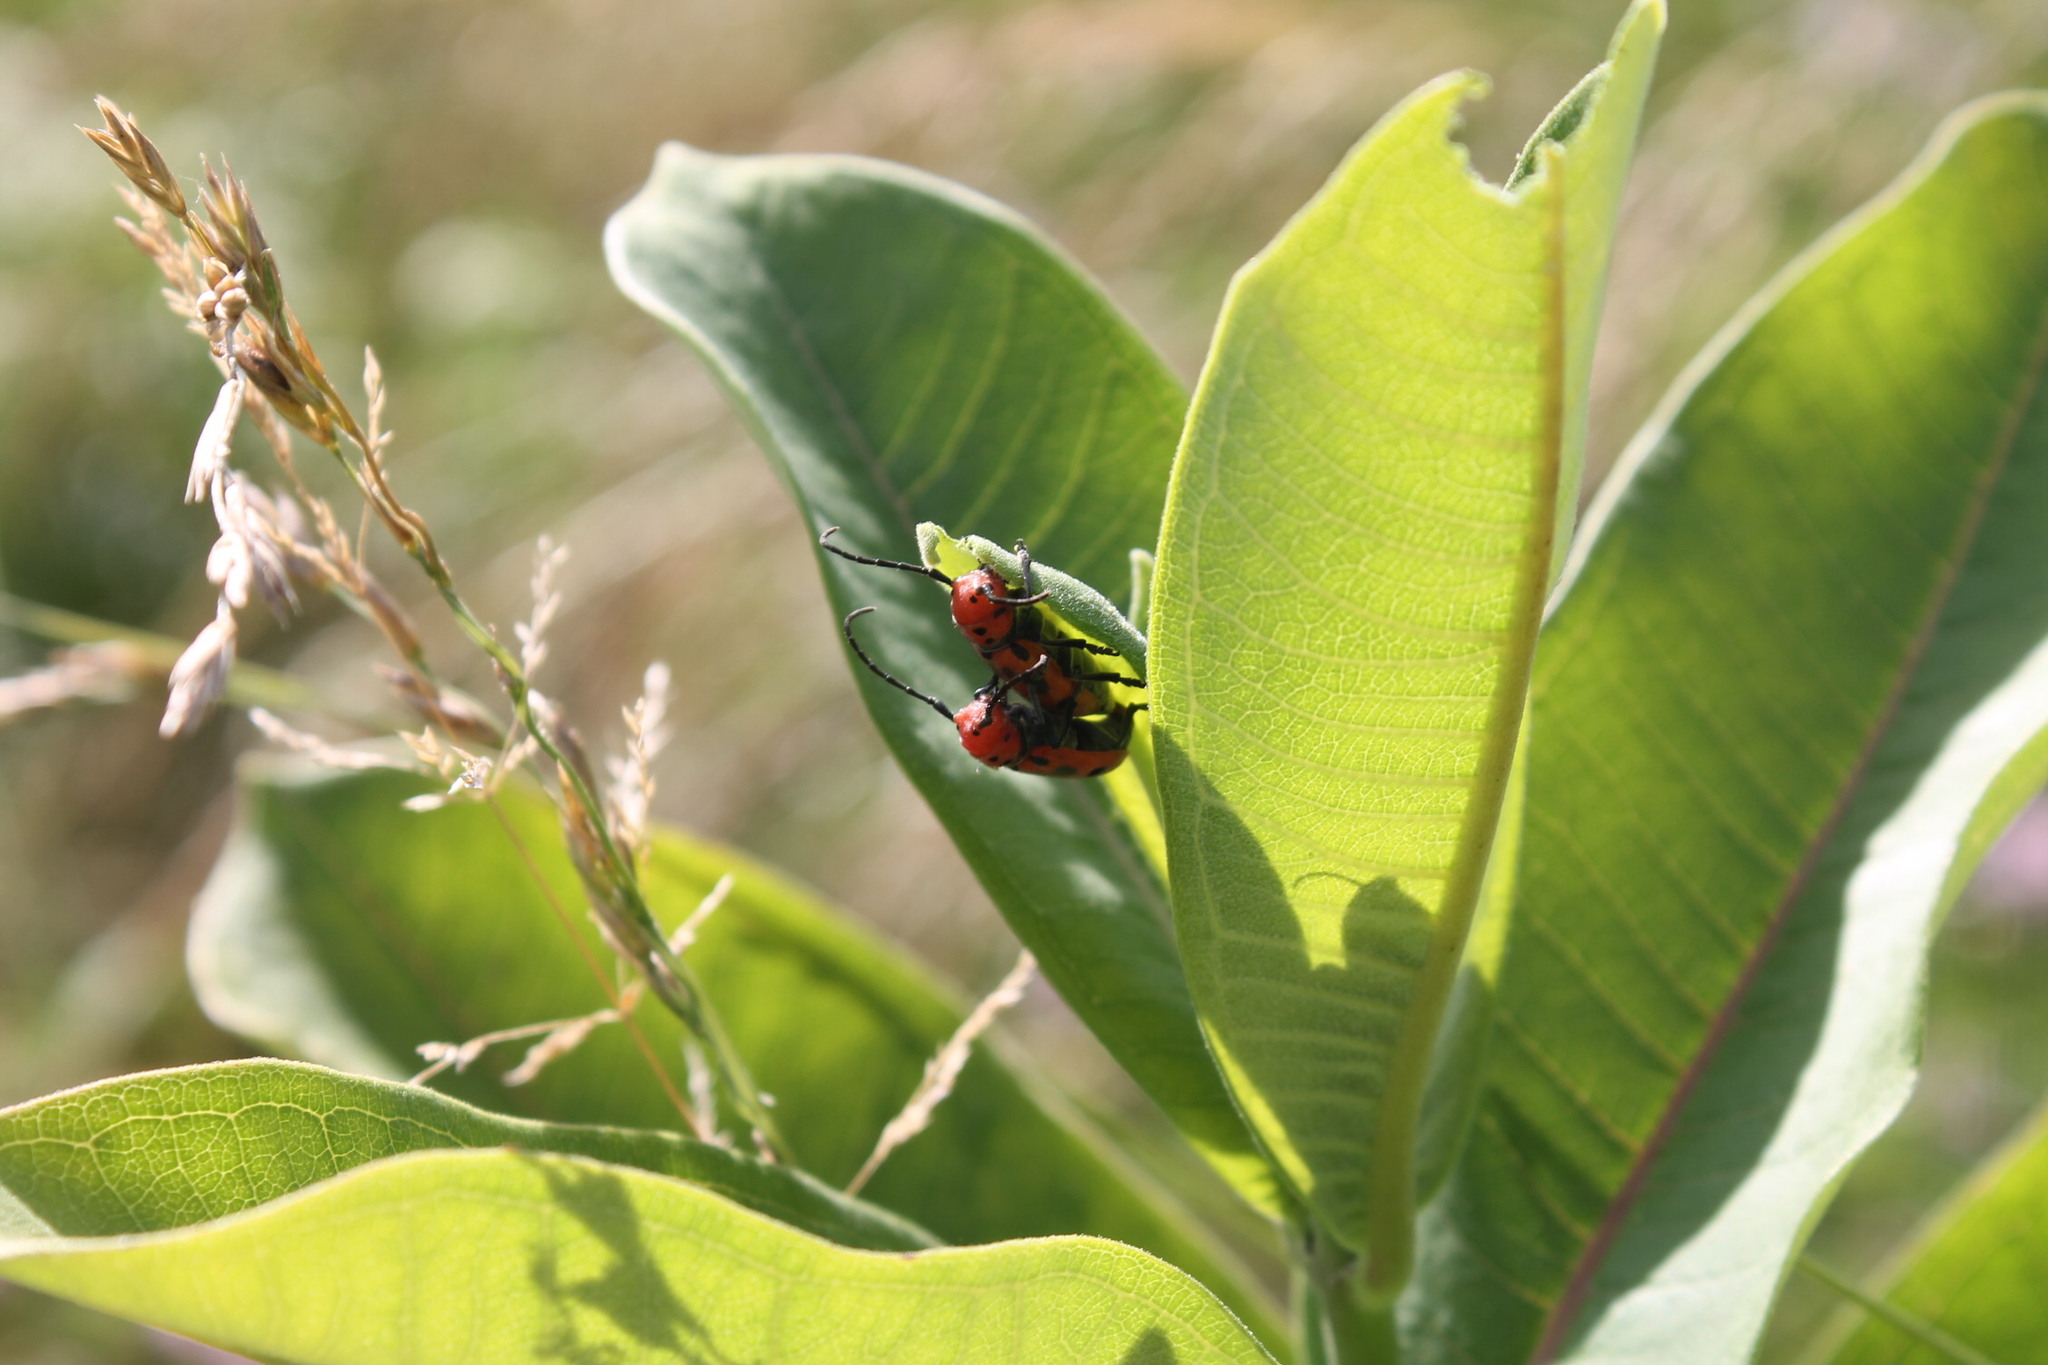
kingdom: Animalia
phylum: Arthropoda
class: Insecta
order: Coleoptera
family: Cerambycidae
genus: Tetraopes
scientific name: Tetraopes tetrophthalmus
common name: Red milkweed beetle
